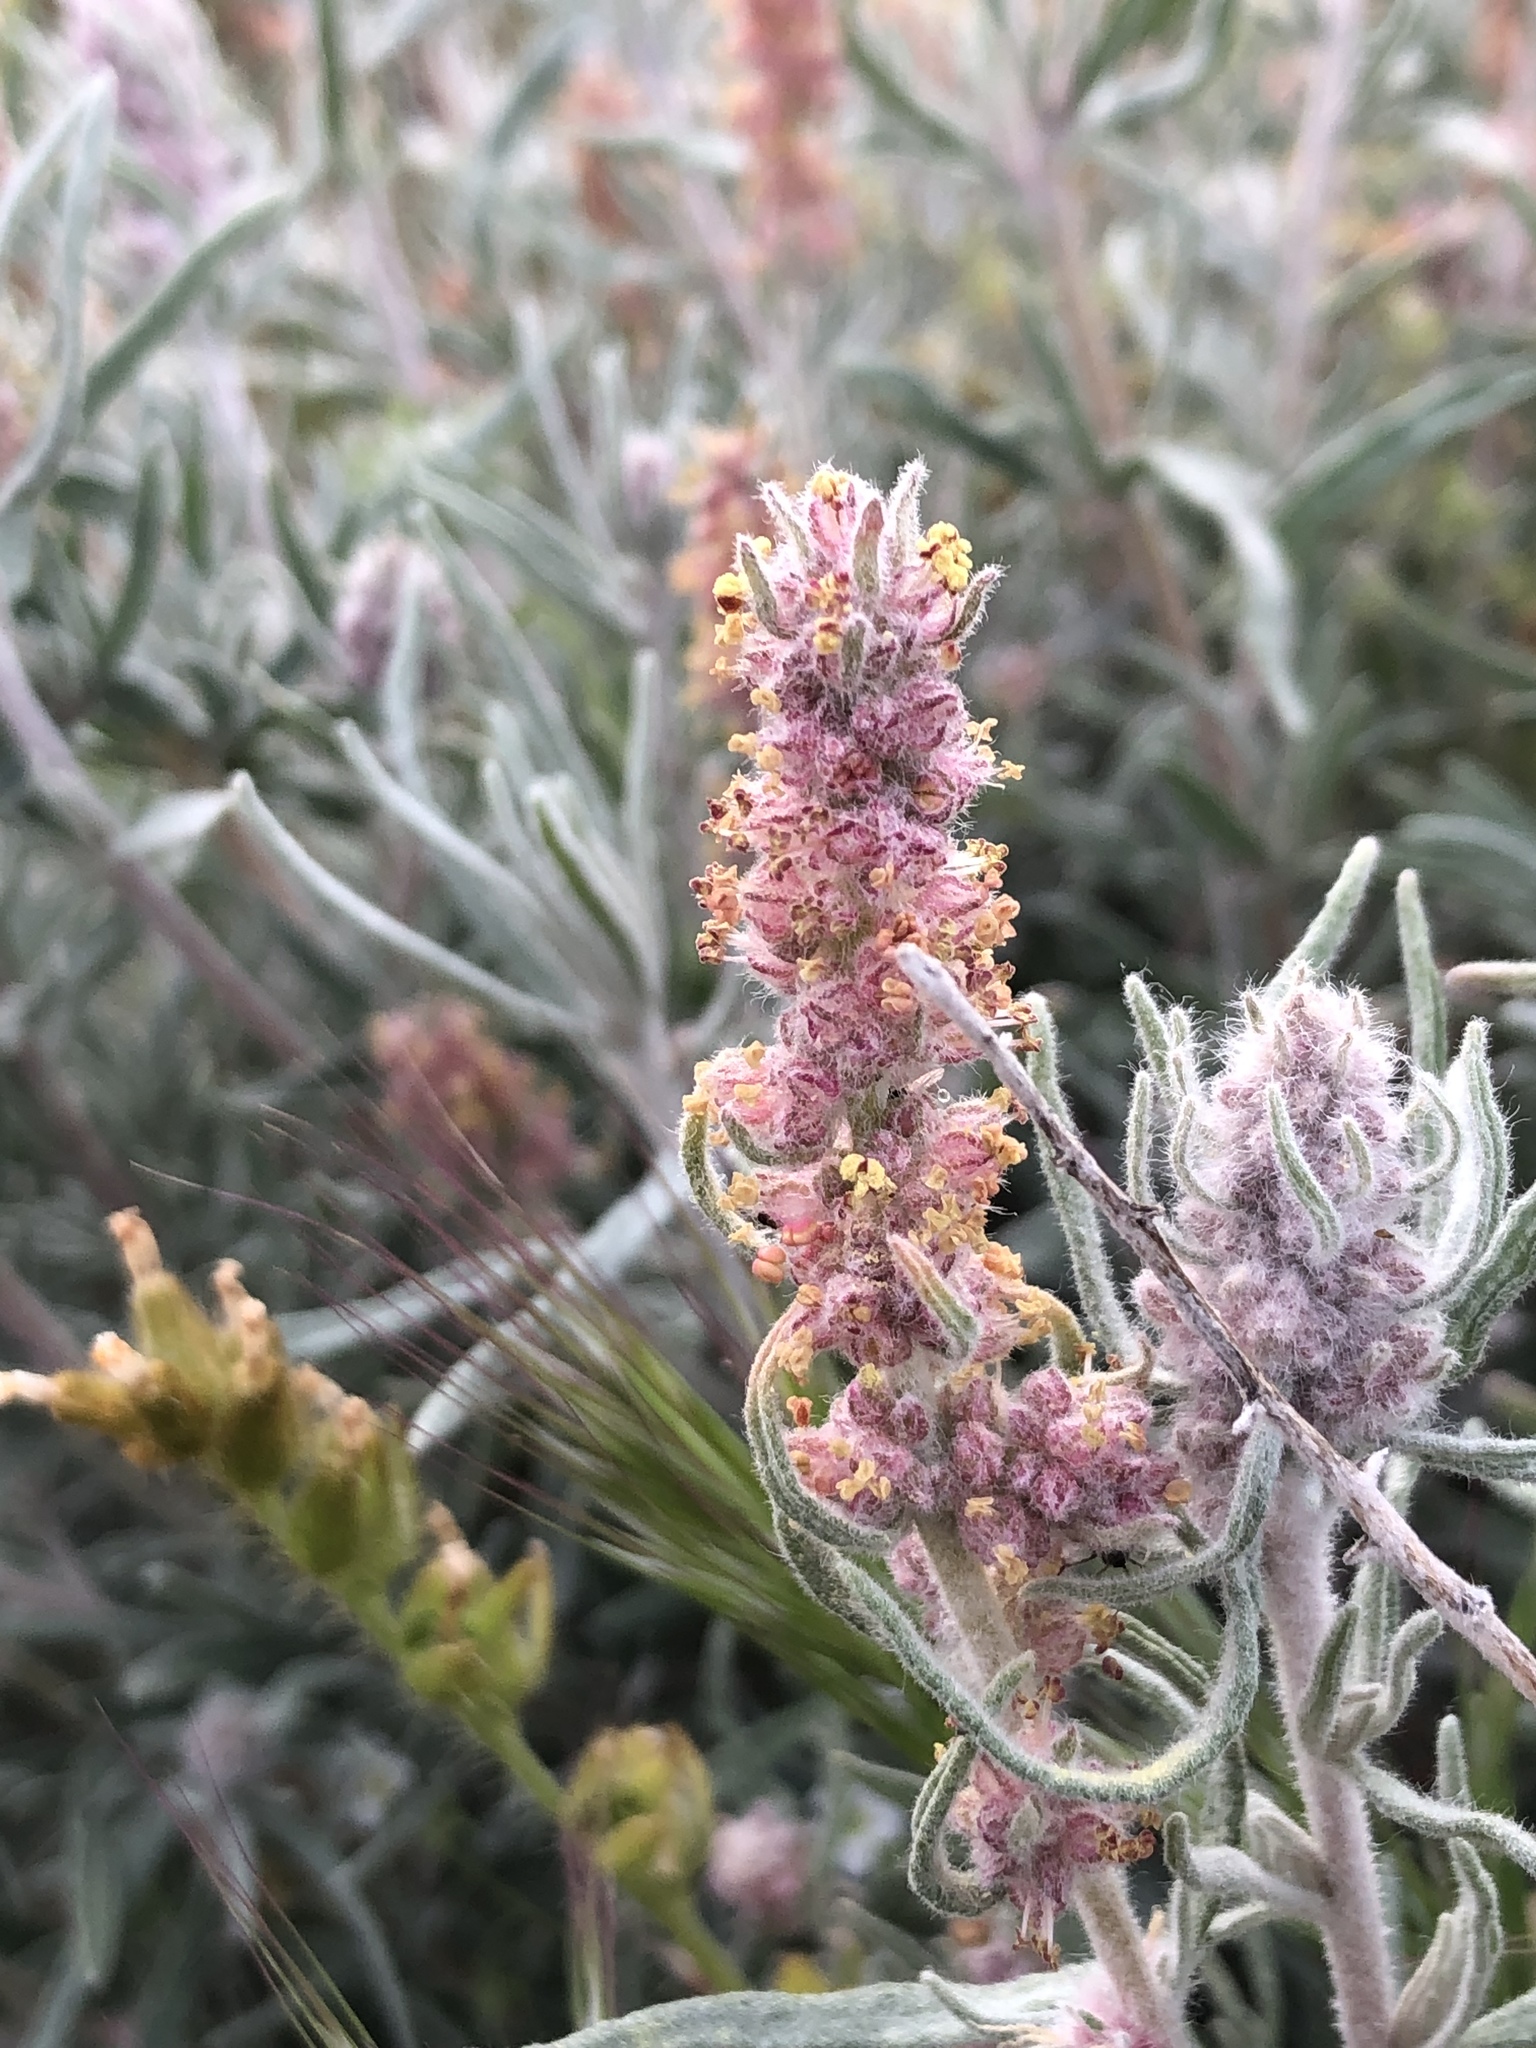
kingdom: Plantae
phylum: Tracheophyta
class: Magnoliopsida
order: Caryophyllales
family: Amaranthaceae
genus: Krascheninnikovia
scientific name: Krascheninnikovia lanata
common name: Winterfat
